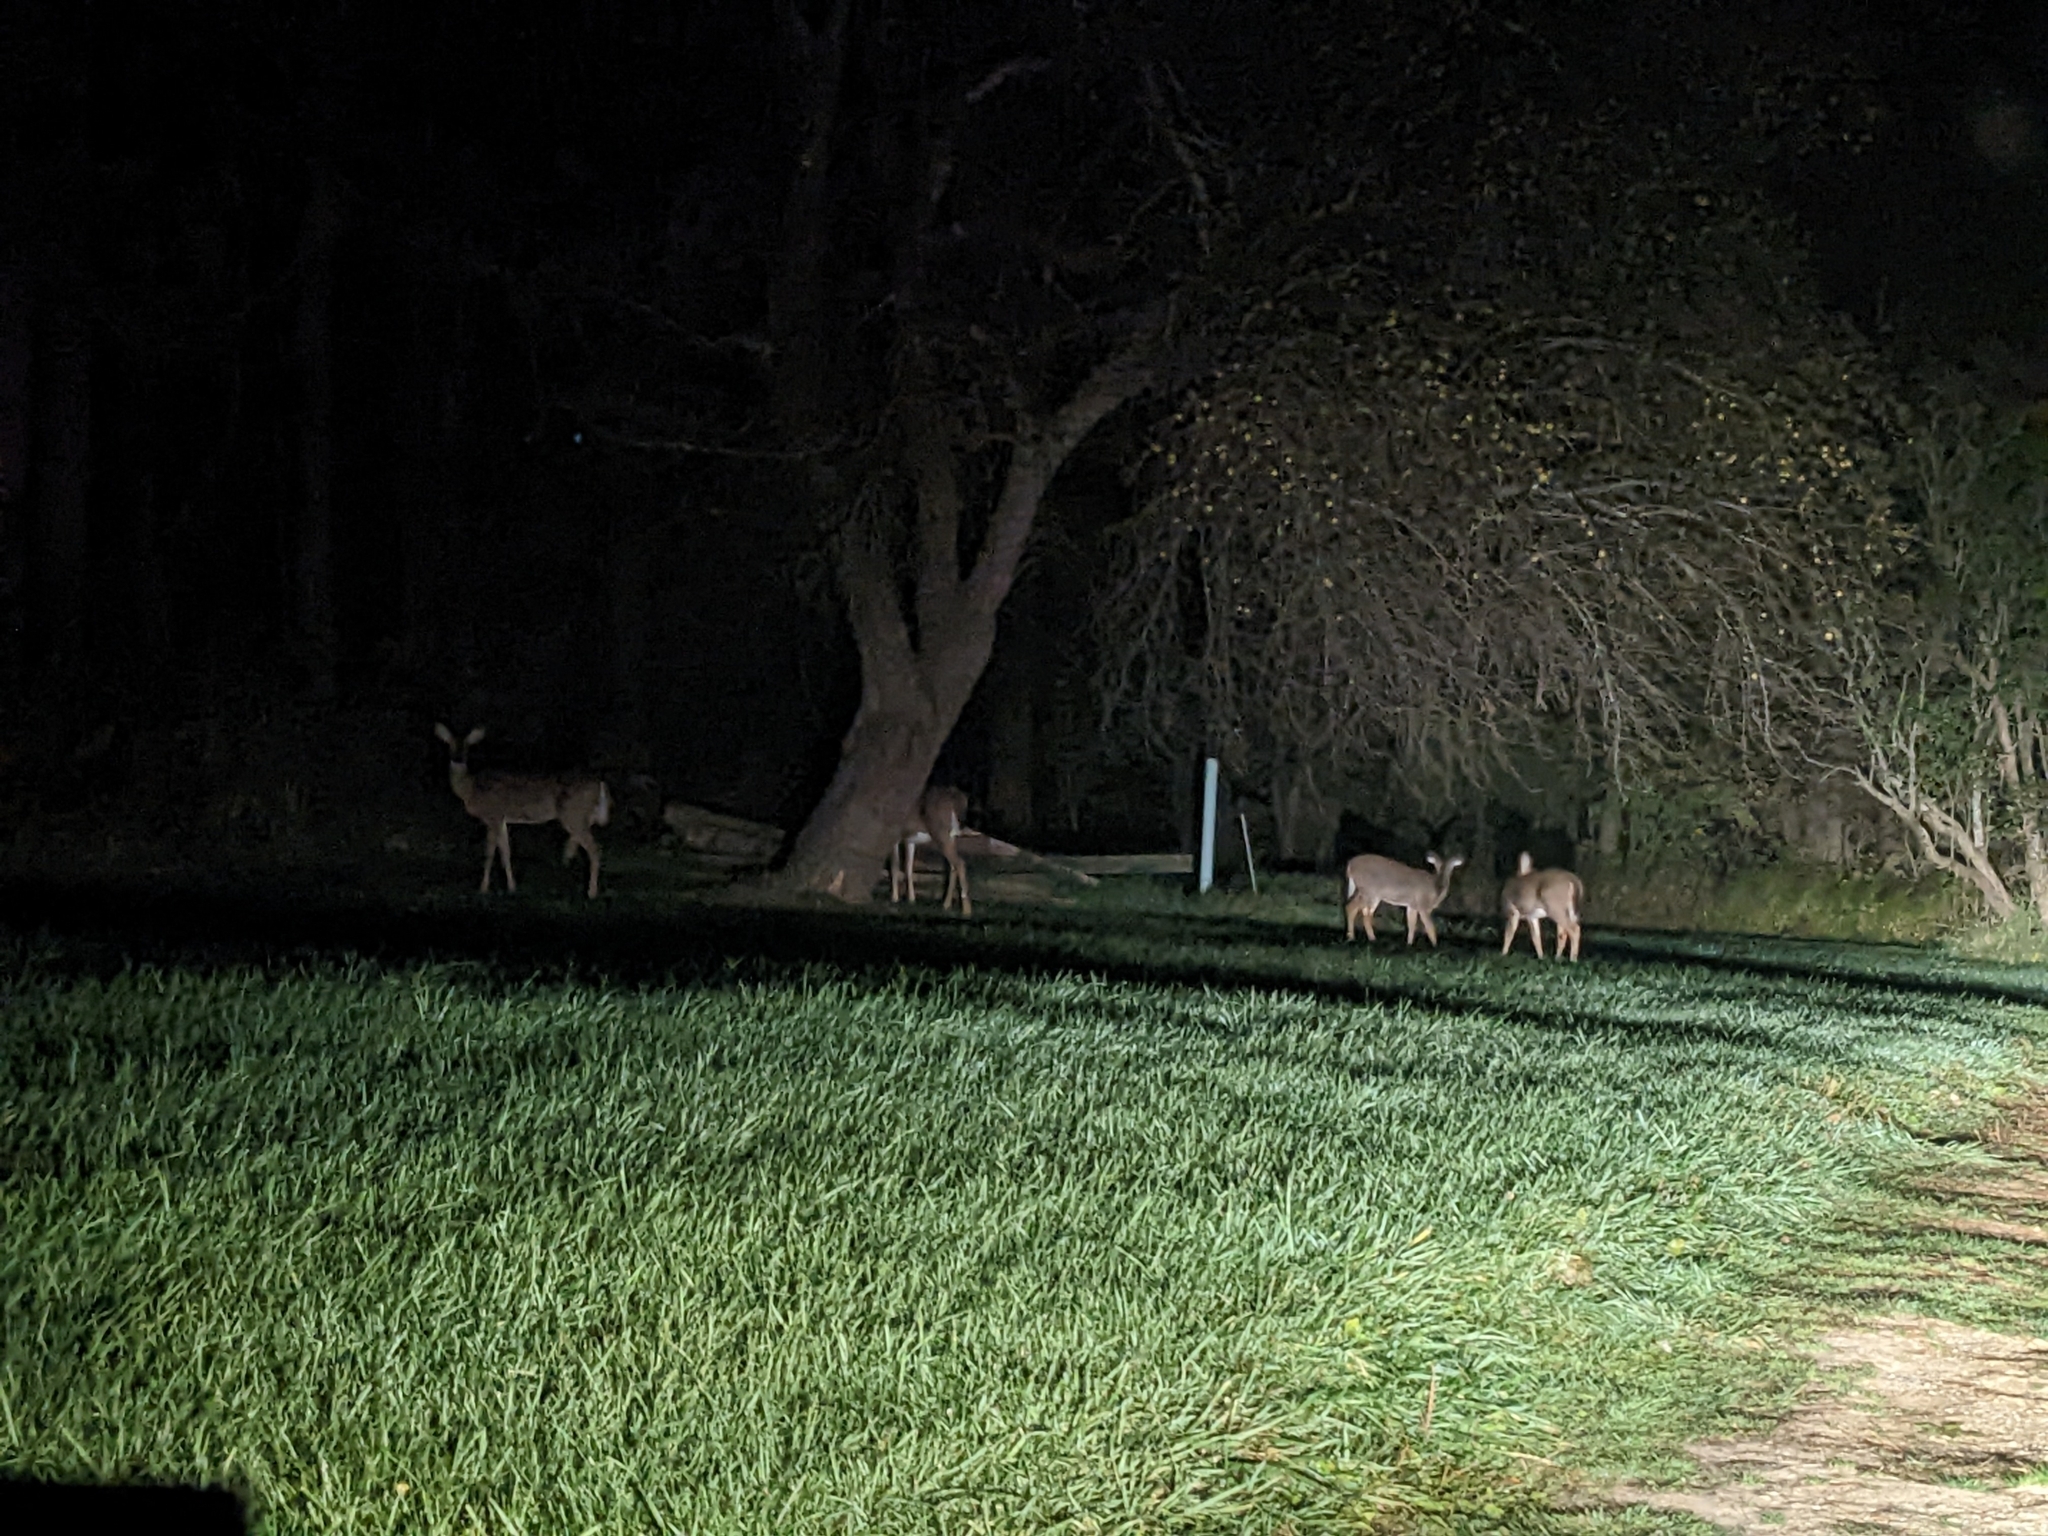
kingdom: Animalia
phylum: Chordata
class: Mammalia
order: Artiodactyla
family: Cervidae
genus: Odocoileus
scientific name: Odocoileus virginianus
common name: White-tailed deer
